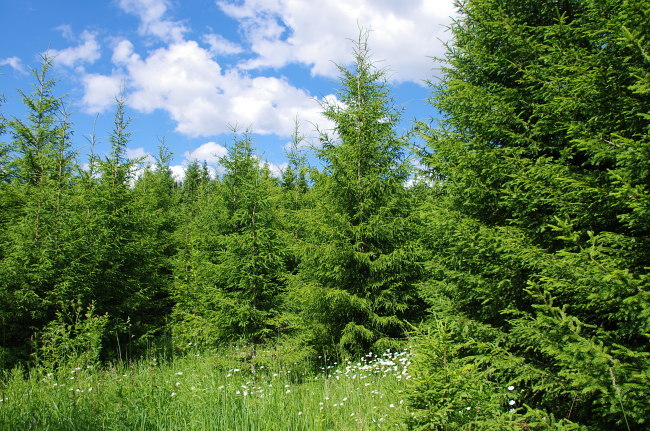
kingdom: Plantae
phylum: Tracheophyta
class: Pinopsida
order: Pinales
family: Pinaceae
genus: Picea
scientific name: Picea abies
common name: Norway spruce
